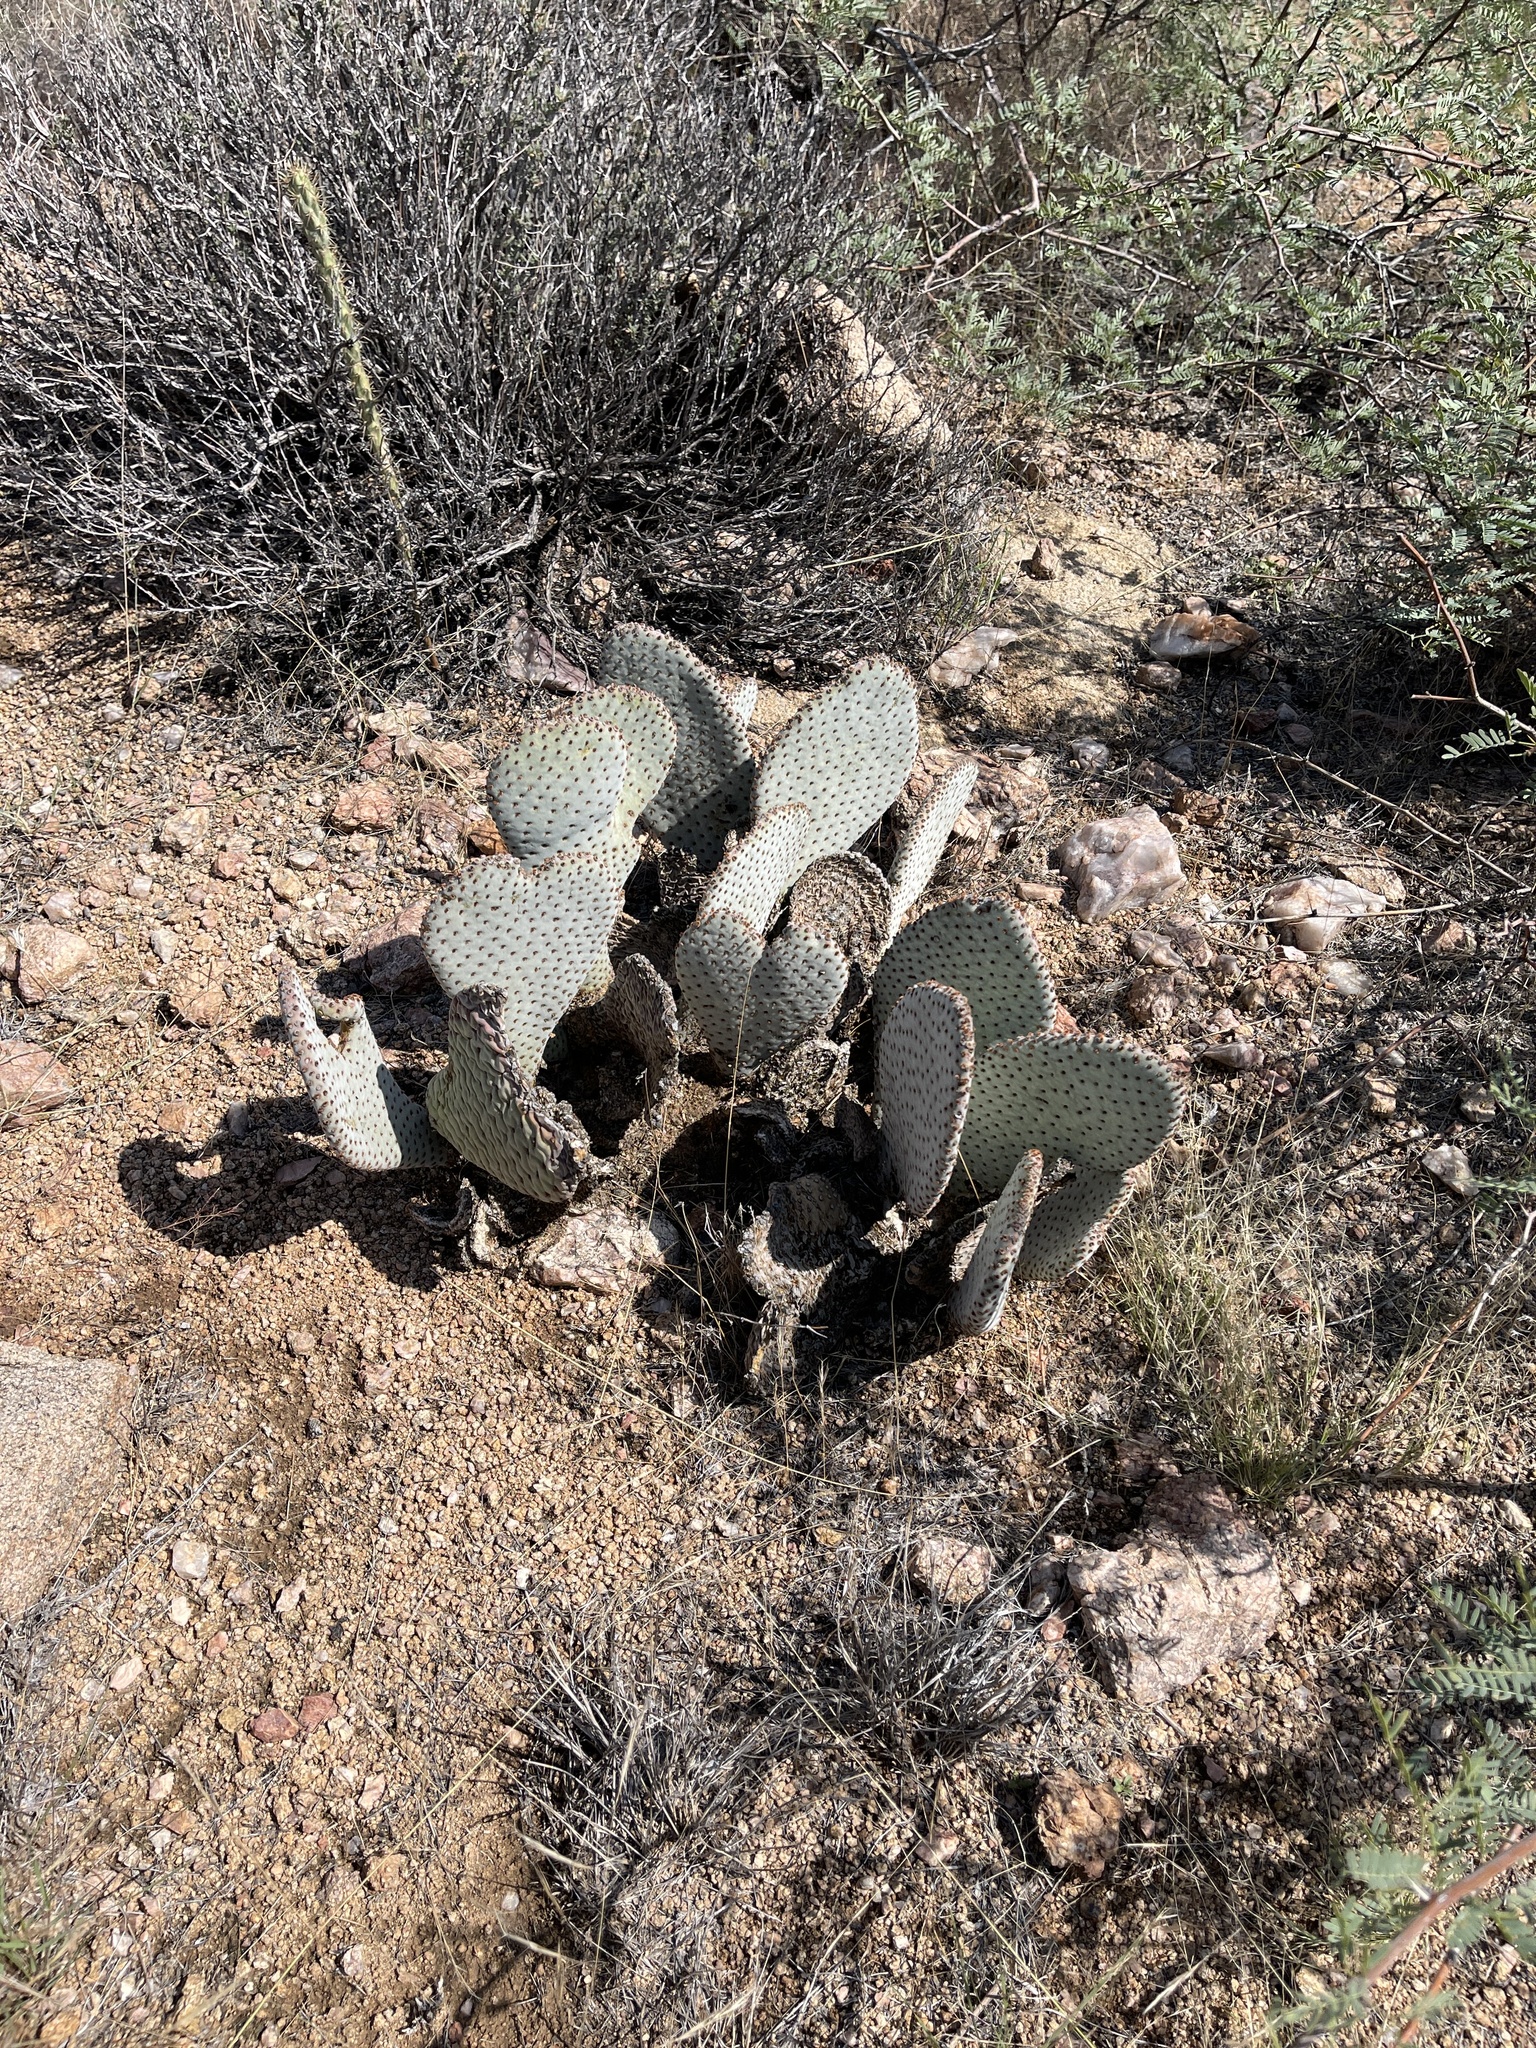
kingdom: Plantae
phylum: Tracheophyta
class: Magnoliopsida
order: Caryophyllales
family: Cactaceae
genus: Opuntia
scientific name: Opuntia basilaris
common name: Beavertail prickly-pear
